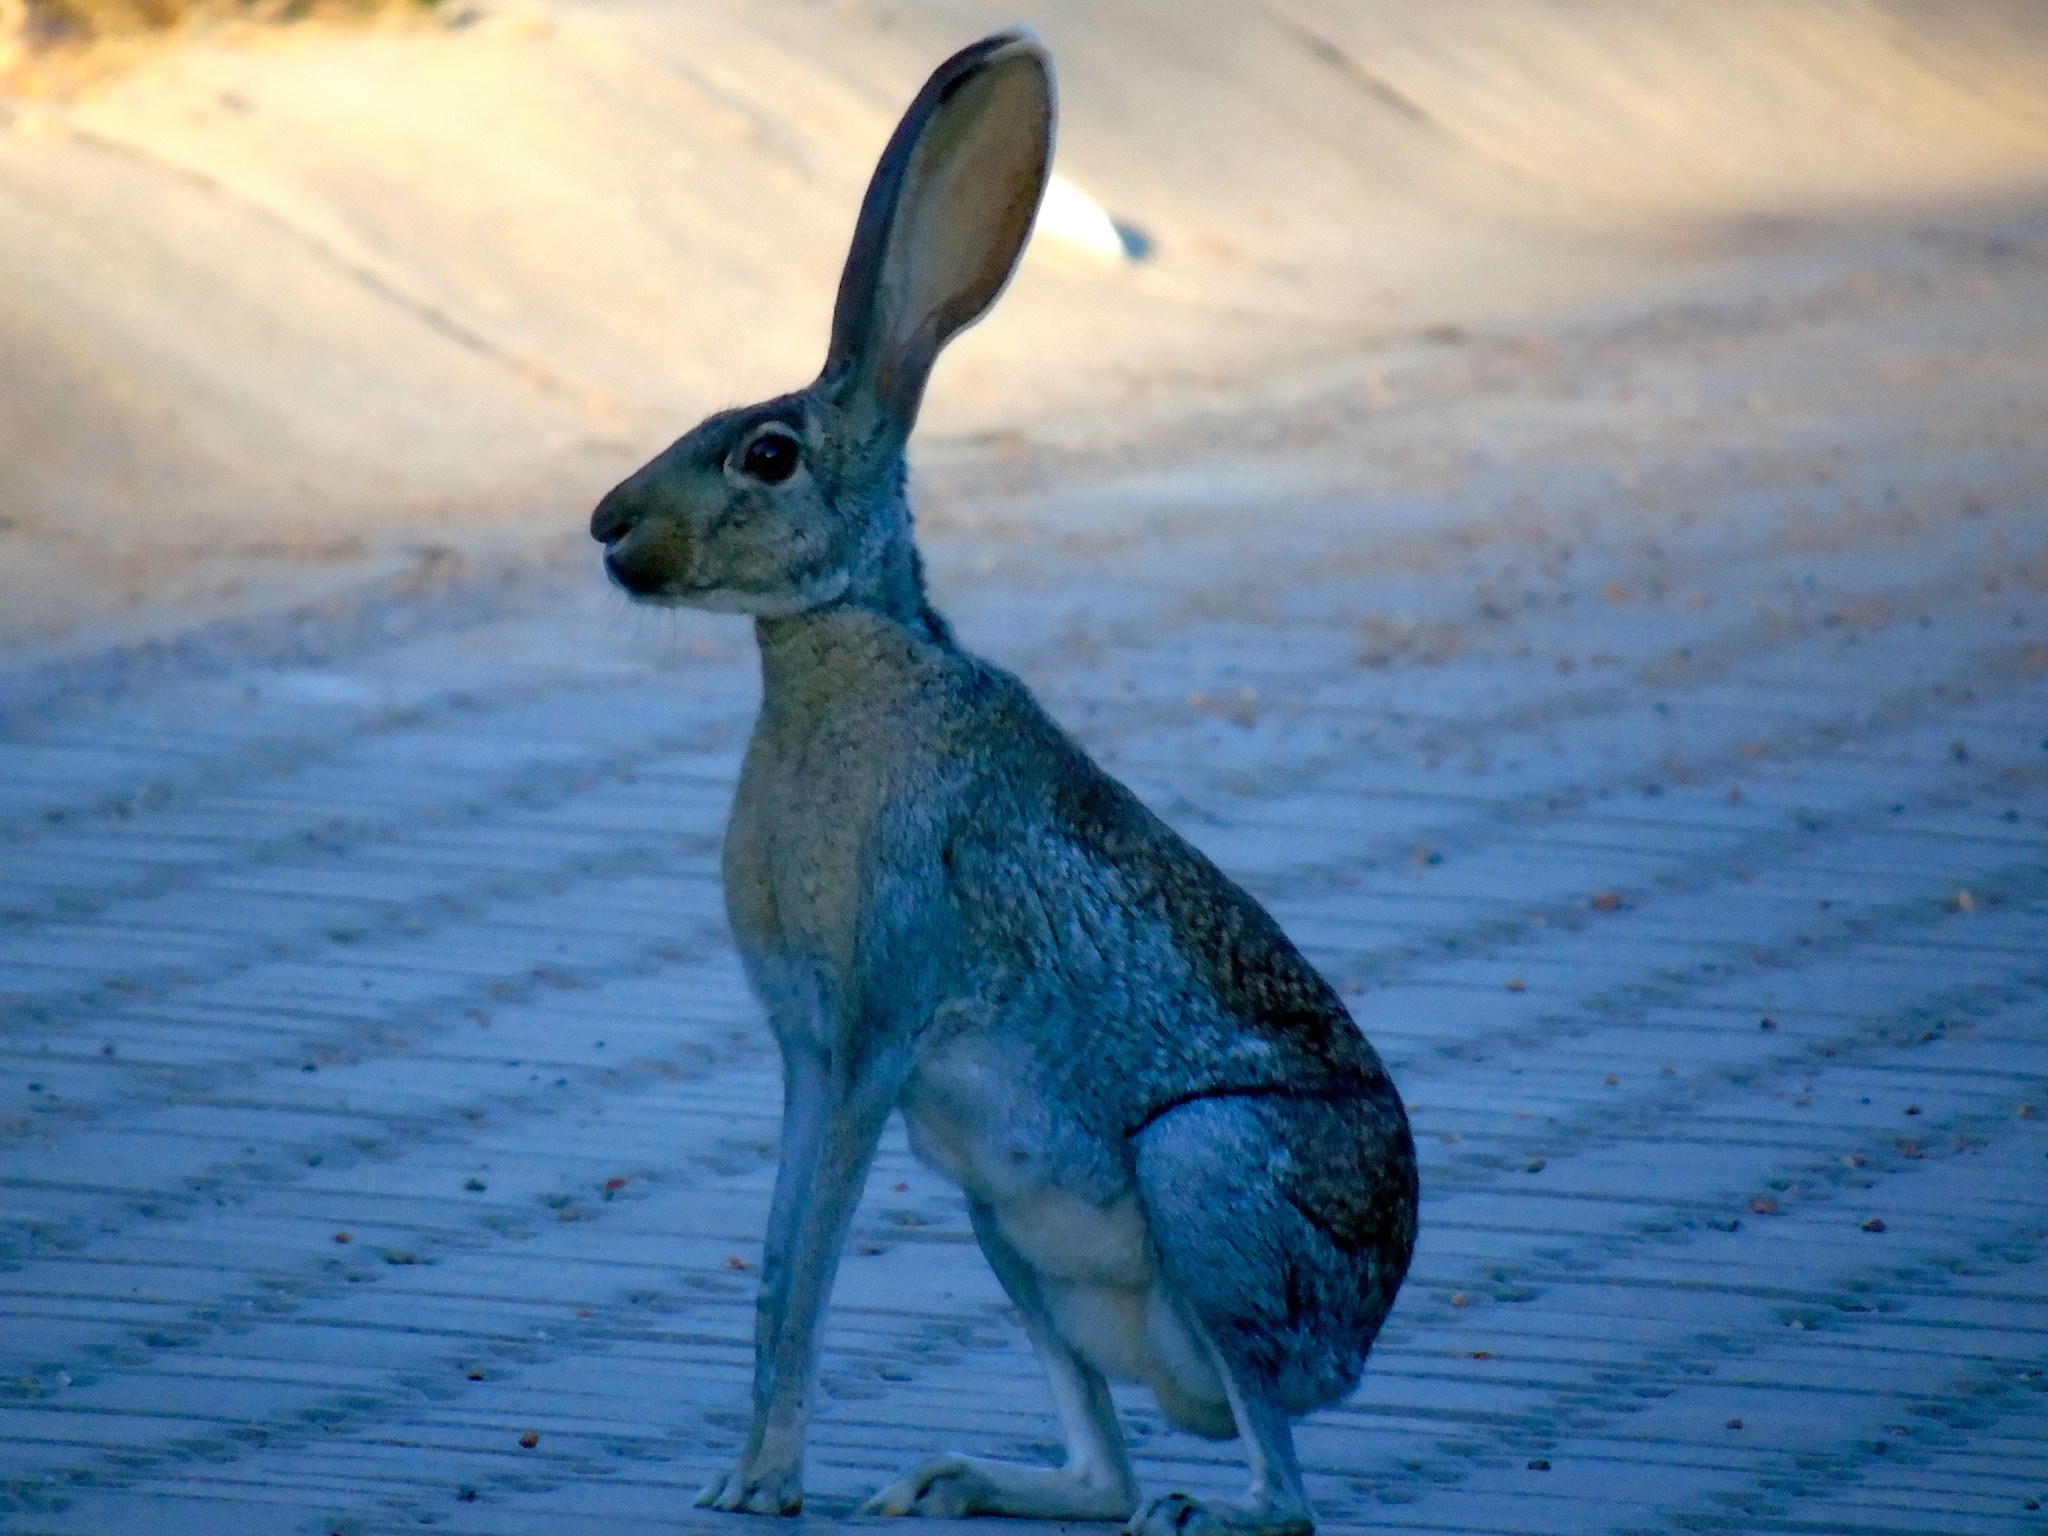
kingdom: Animalia
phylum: Chordata
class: Mammalia
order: Lagomorpha
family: Leporidae
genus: Lepus
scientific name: Lepus alleni
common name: Antelope jackrabbit
